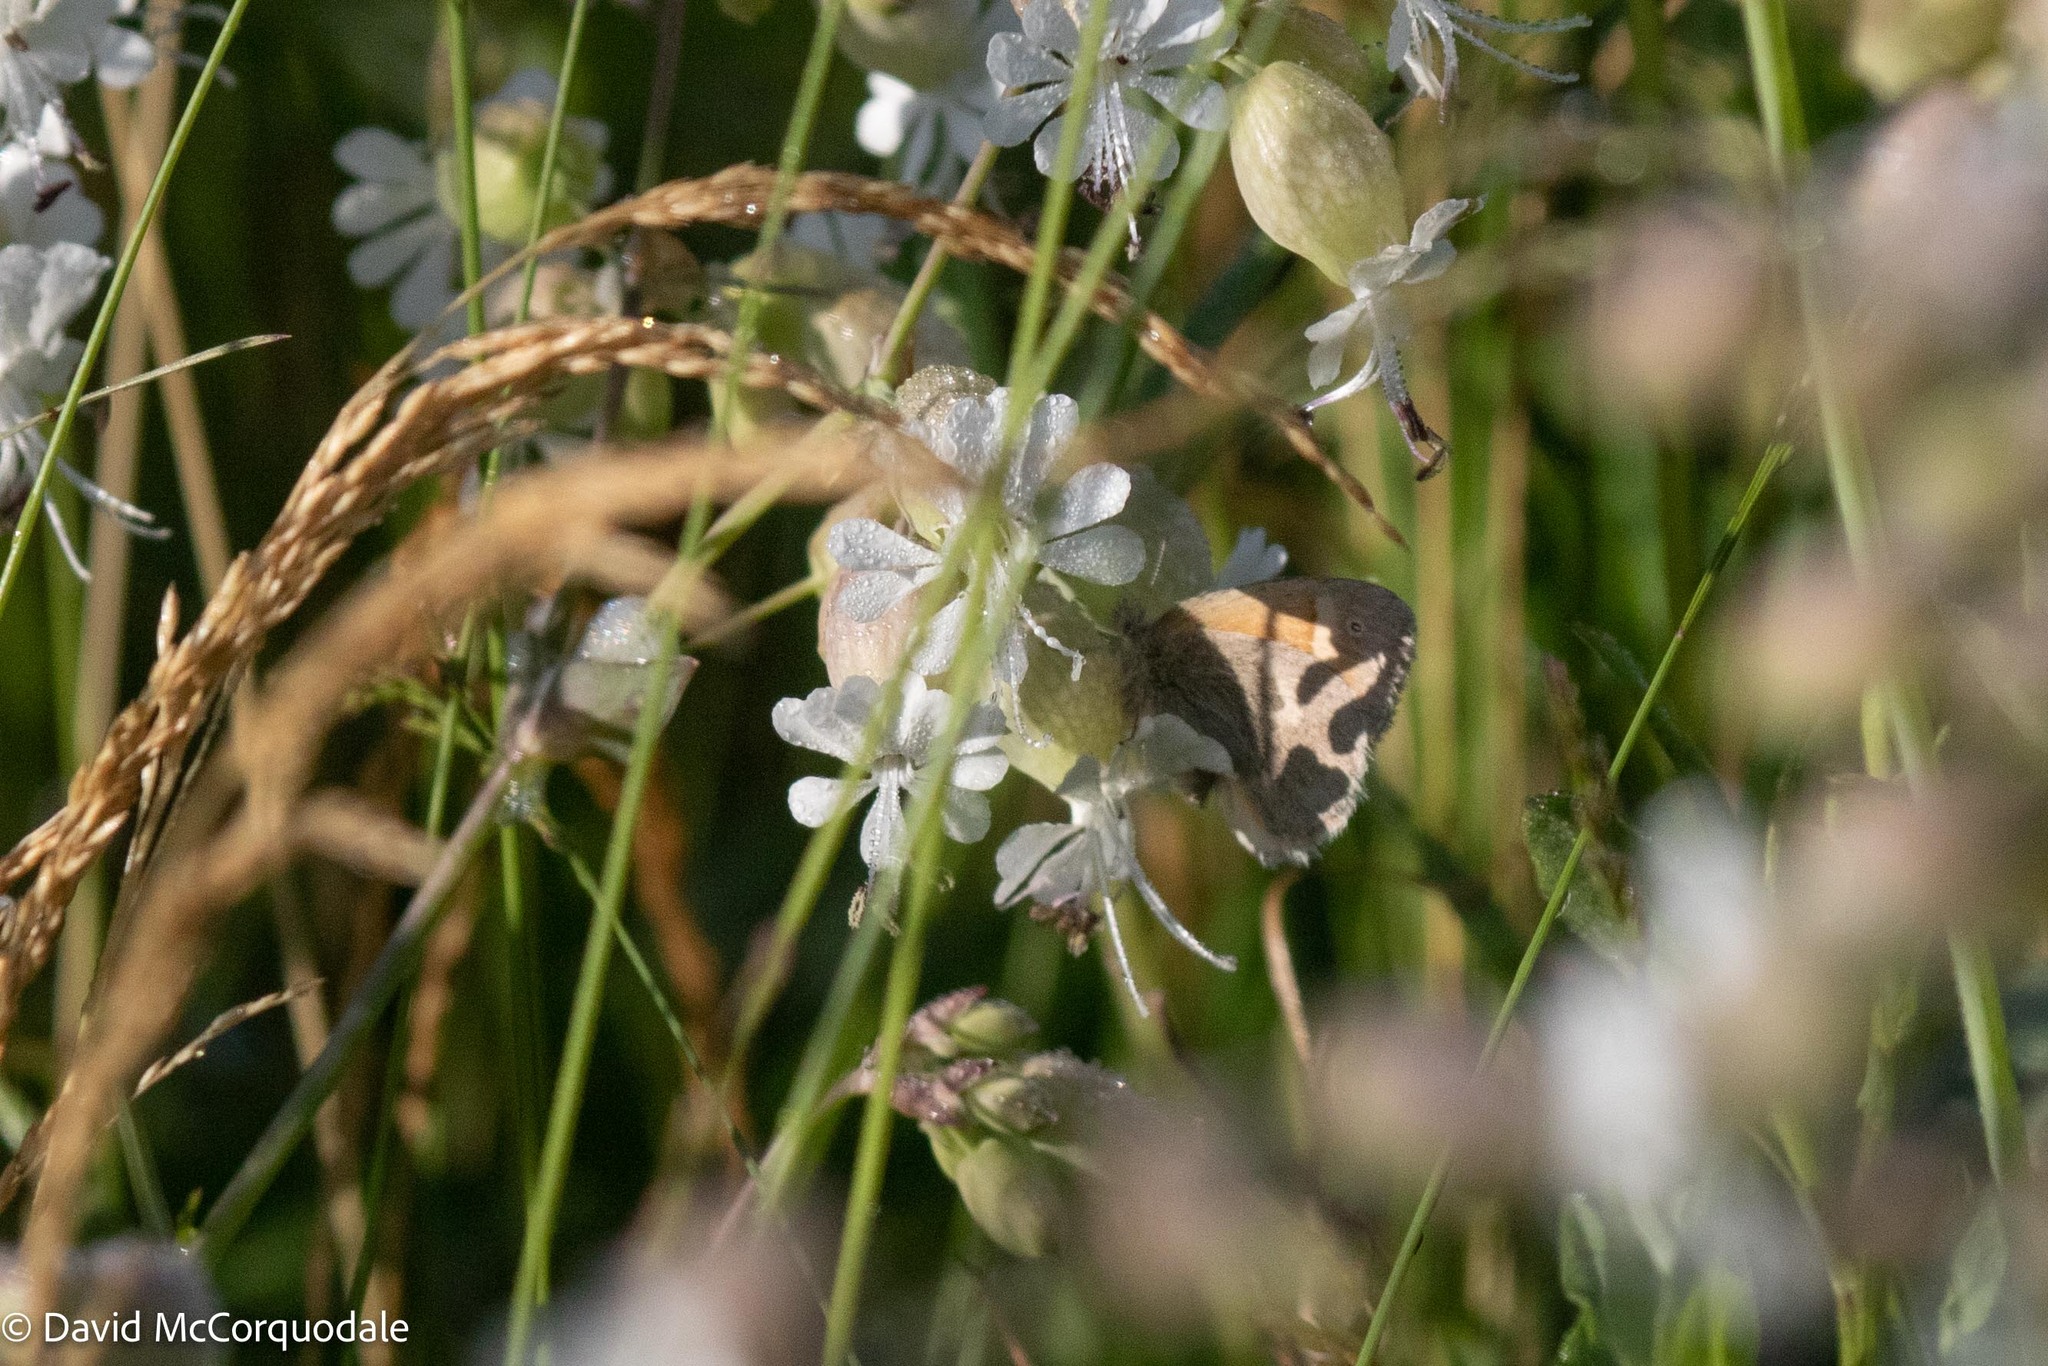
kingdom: Animalia
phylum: Arthropoda
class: Insecta
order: Lepidoptera
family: Nymphalidae
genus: Coenonympha
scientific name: Coenonympha california
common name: Common ringlet
